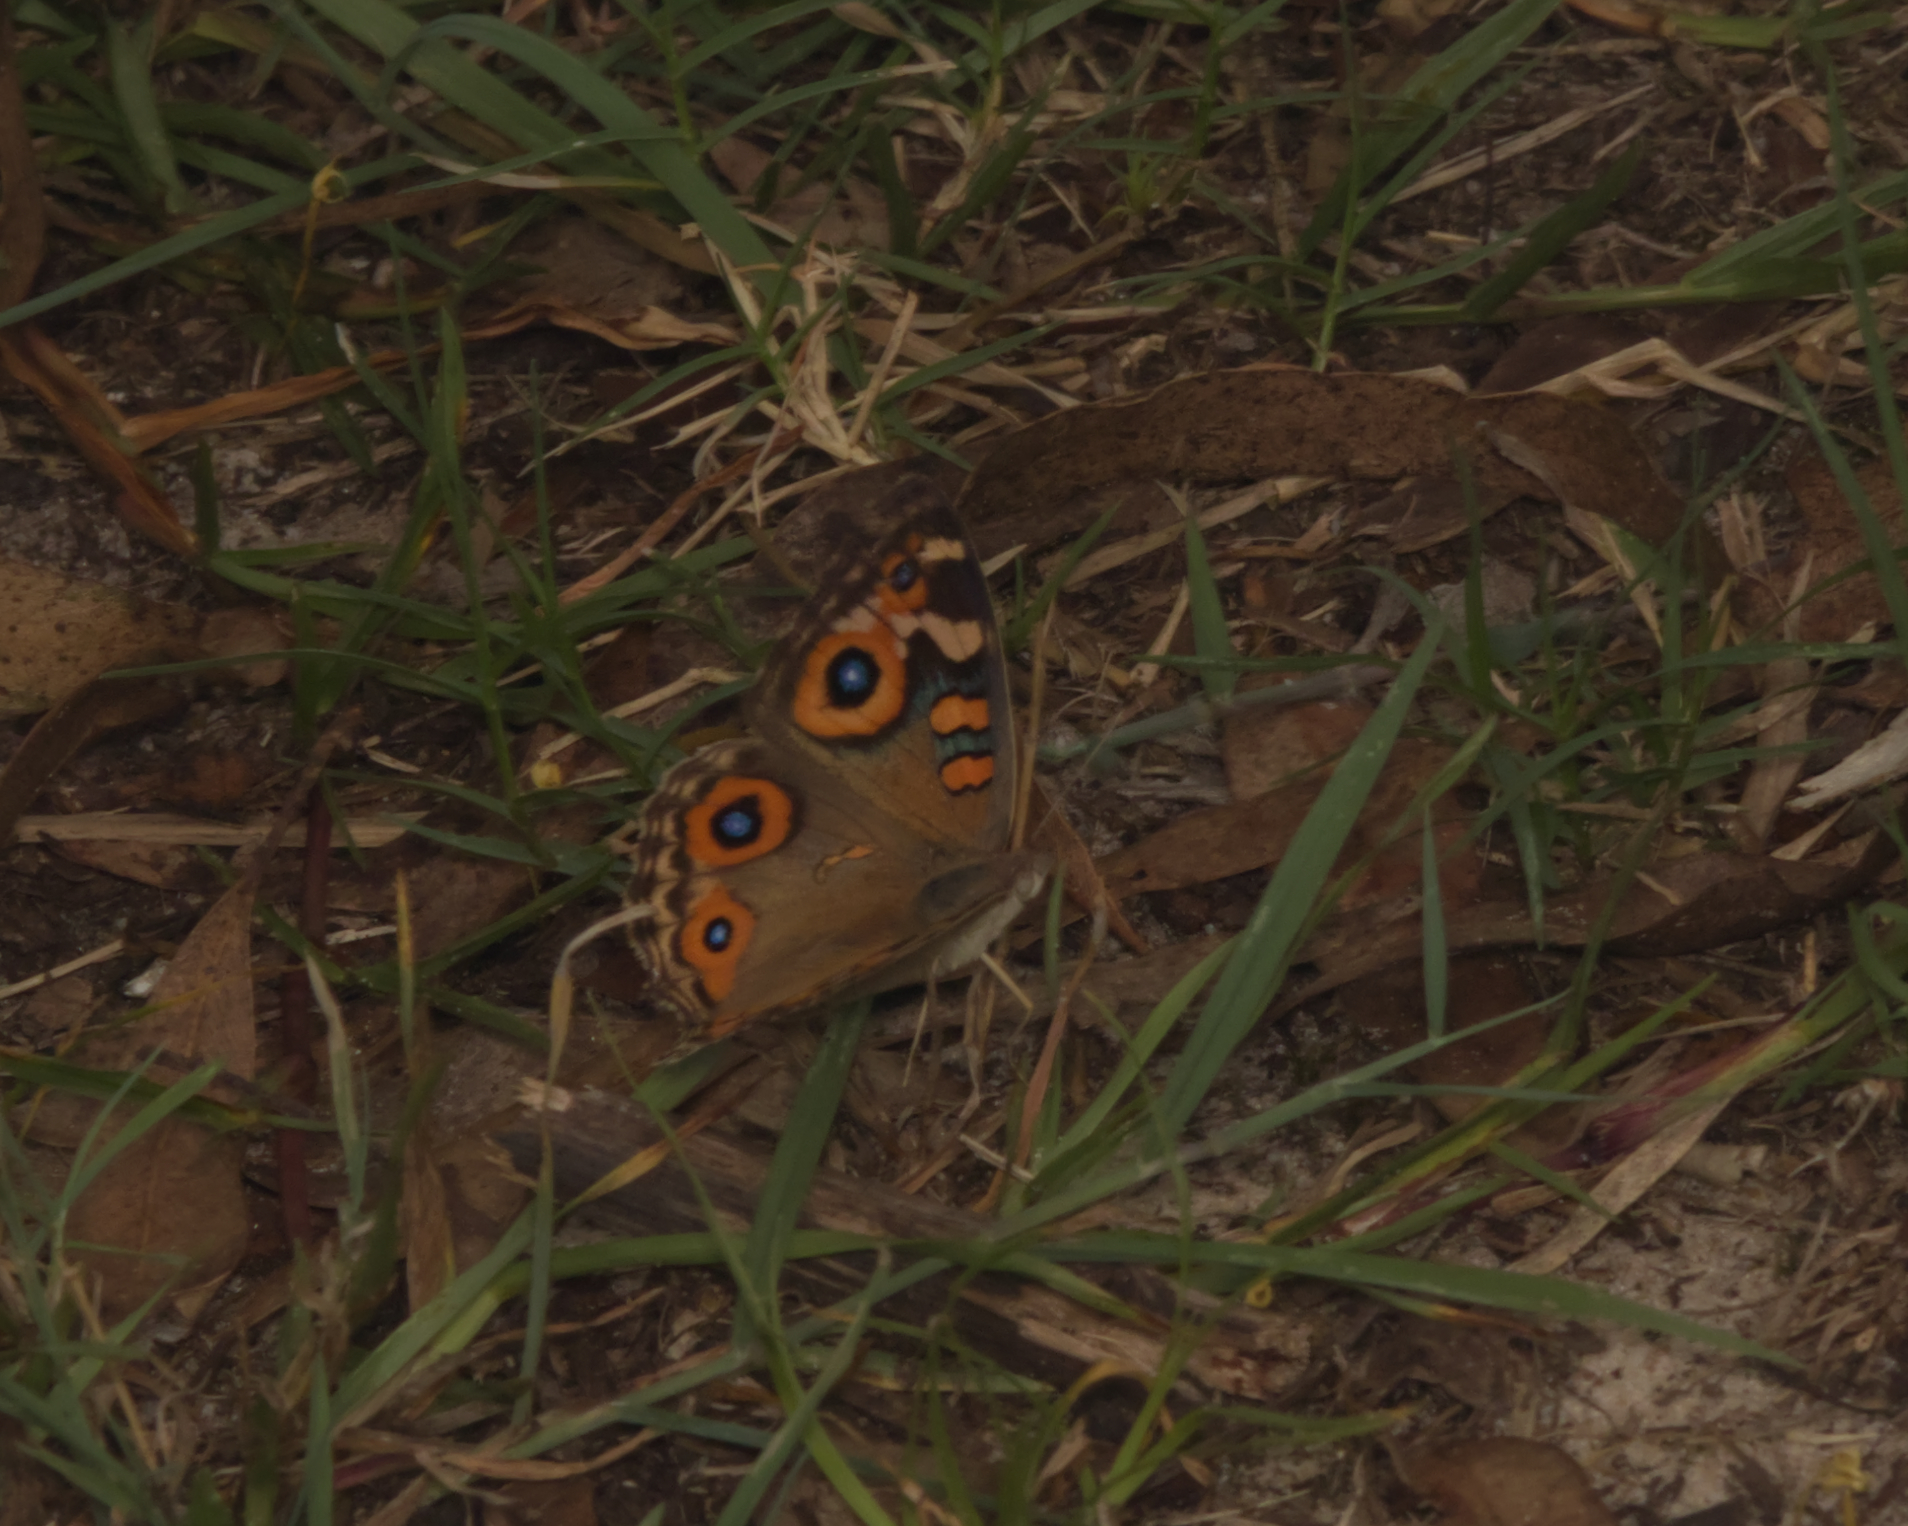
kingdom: Animalia
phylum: Arthropoda
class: Insecta
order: Lepidoptera
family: Nymphalidae
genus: Junonia
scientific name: Junonia villida
